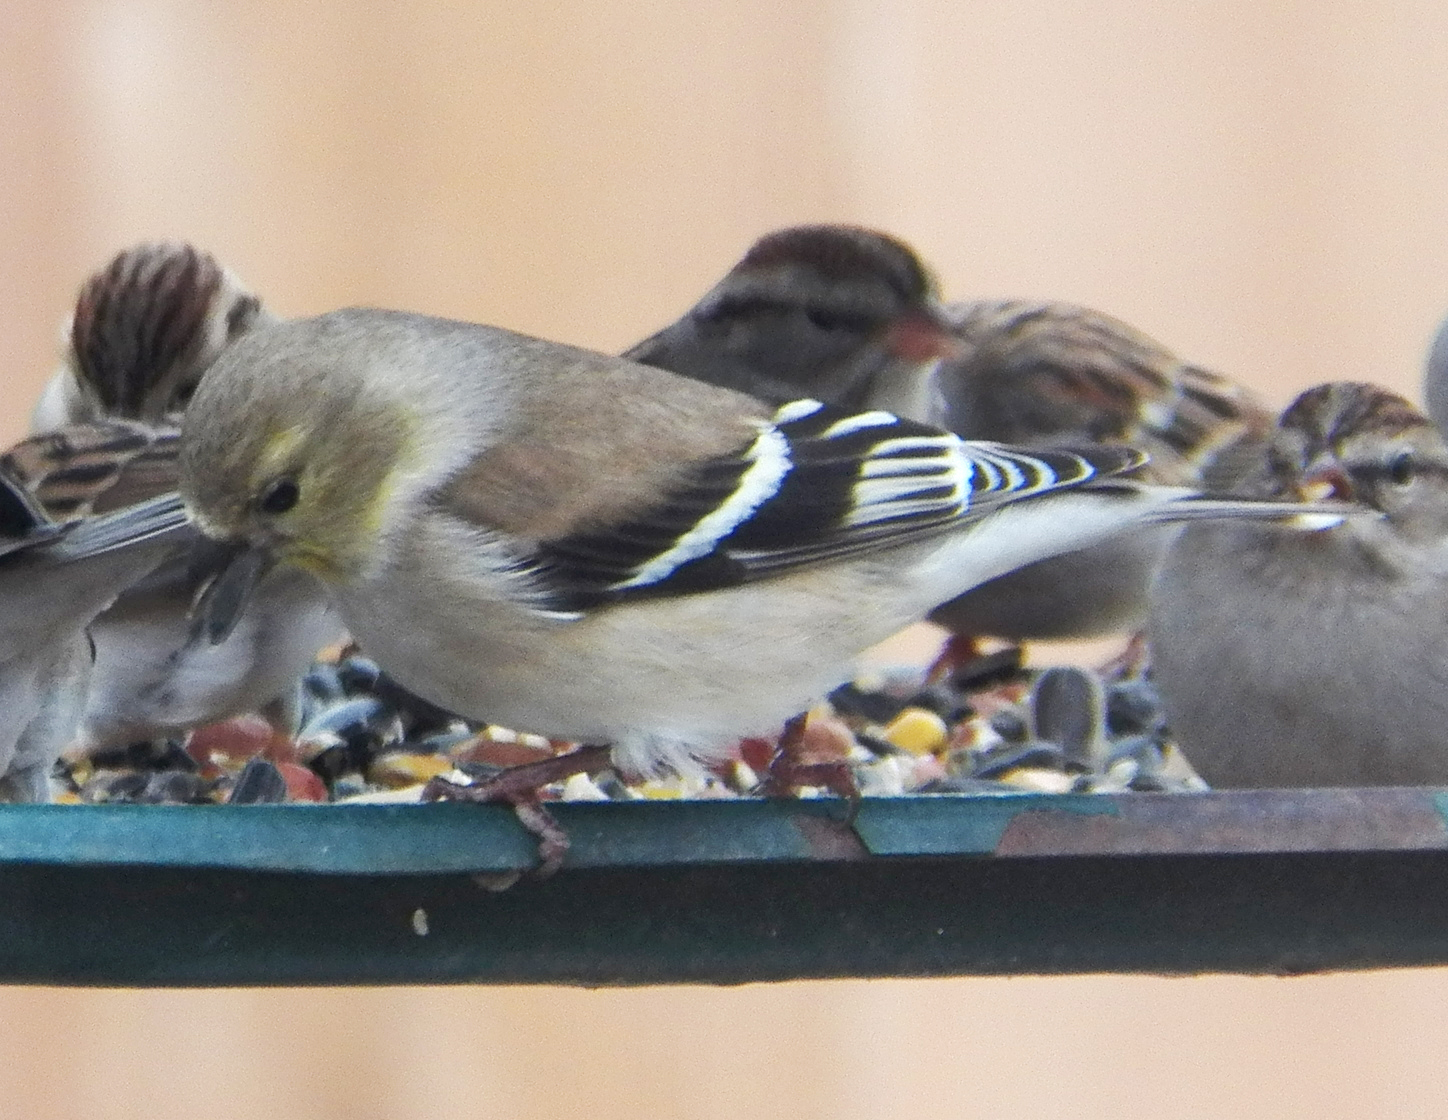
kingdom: Animalia
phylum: Chordata
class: Aves
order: Passeriformes
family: Fringillidae
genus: Spinus
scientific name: Spinus tristis
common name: American goldfinch
